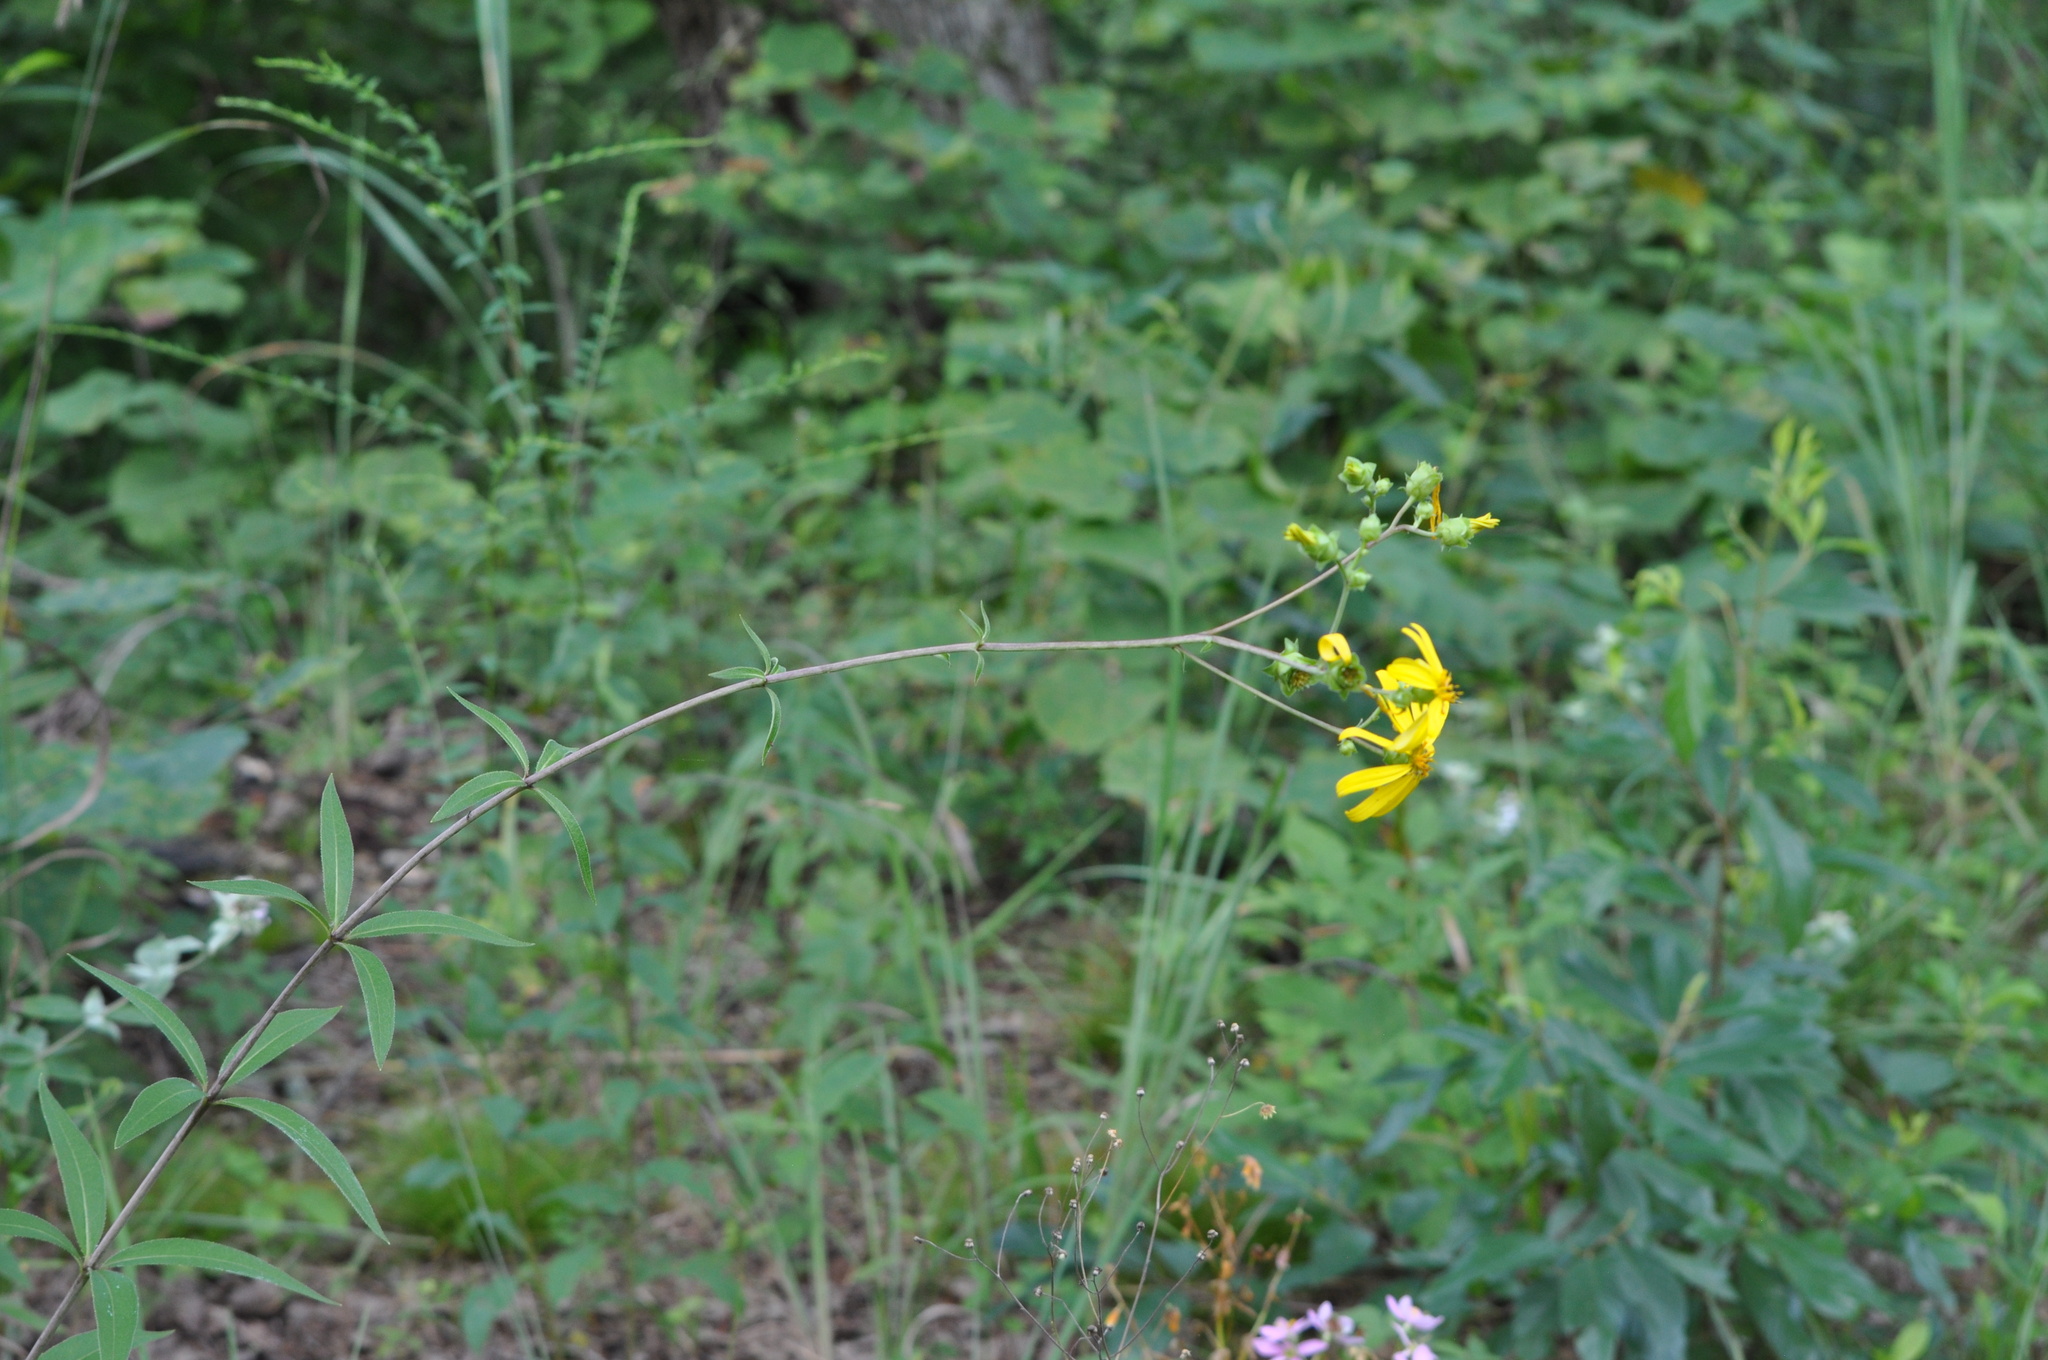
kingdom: Plantae
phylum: Tracheophyta
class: Magnoliopsida
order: Asterales
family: Asteraceae
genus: Silphium
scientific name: Silphium asteriscus
